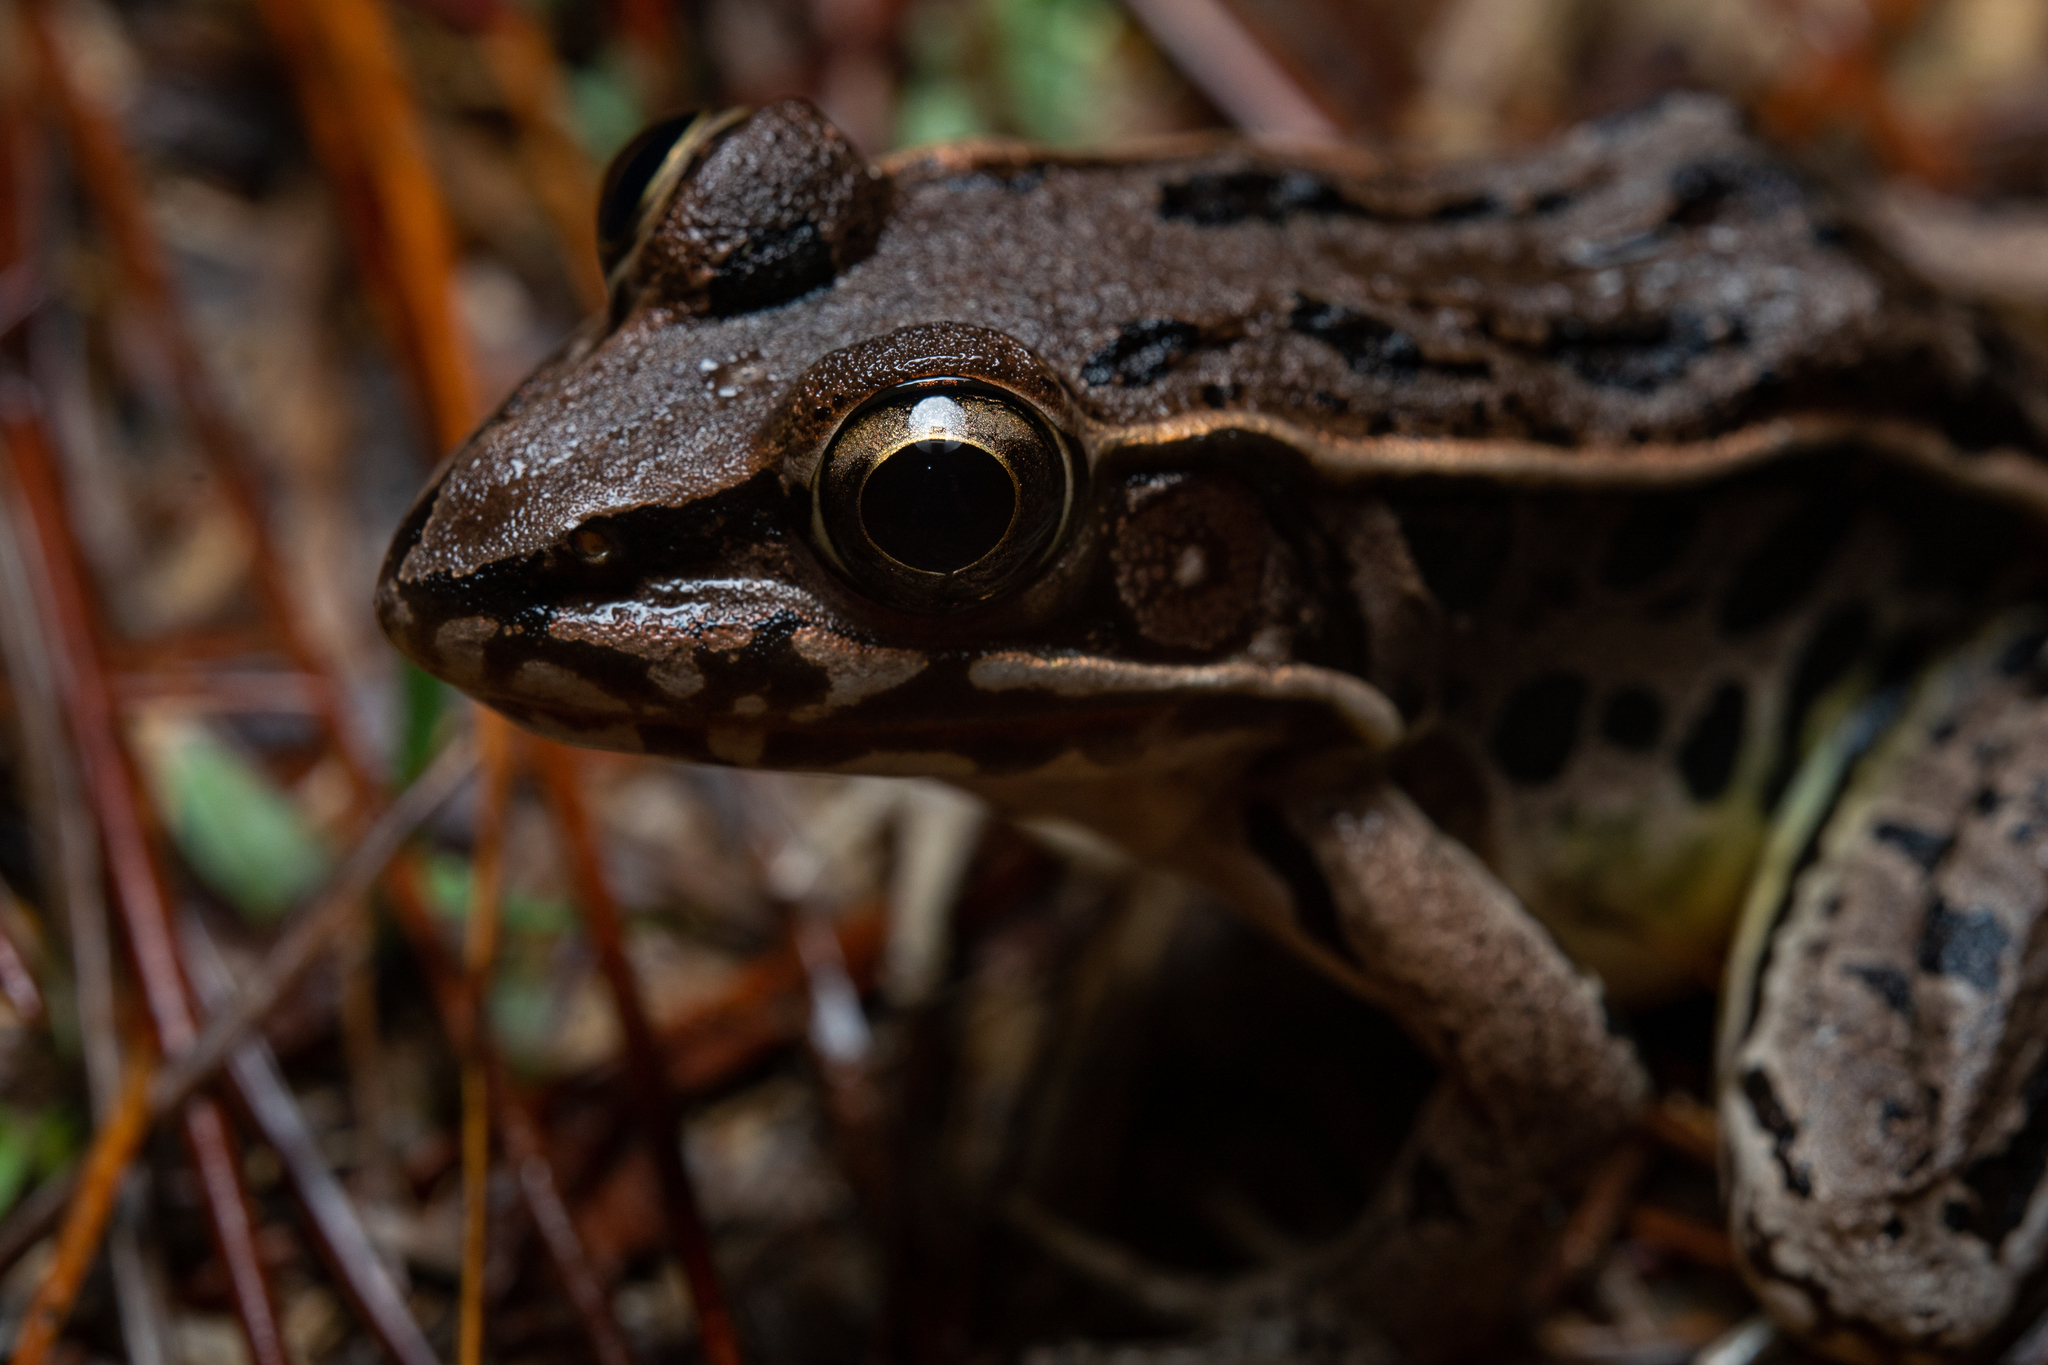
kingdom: Animalia
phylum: Chordata
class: Amphibia
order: Anura
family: Ranidae
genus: Lithobates
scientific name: Lithobates sphenocephalus
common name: Southern leopard frog
